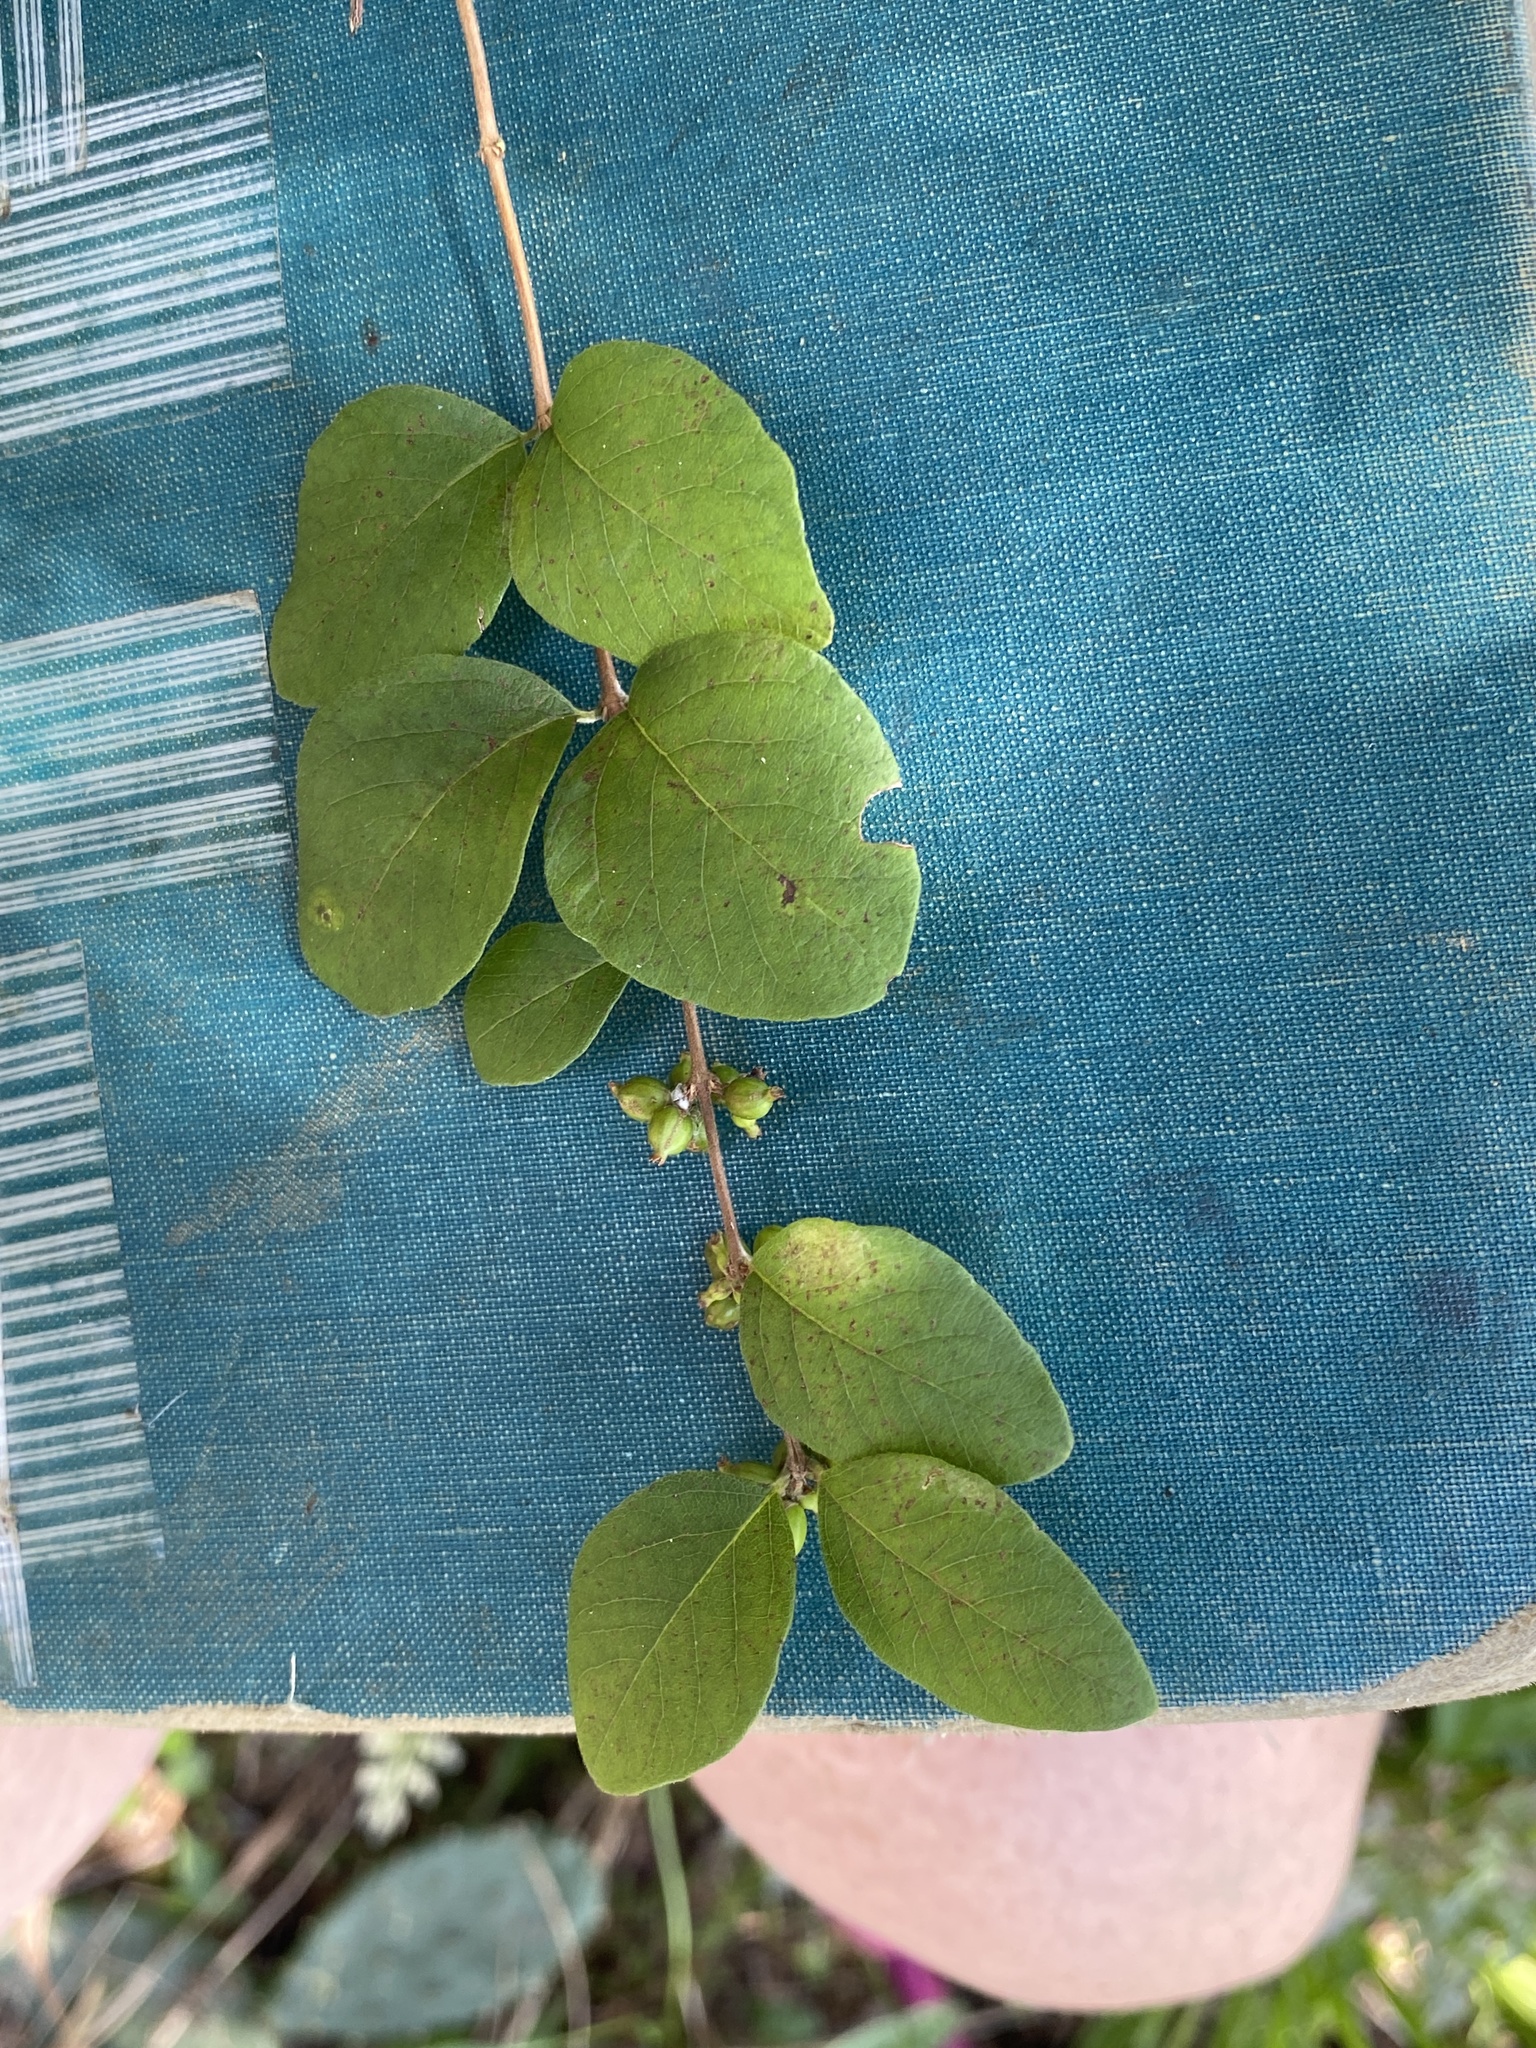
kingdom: Plantae
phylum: Tracheophyta
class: Magnoliopsida
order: Dipsacales
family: Caprifoliaceae
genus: Symphoricarpos
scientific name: Symphoricarpos orbiculatus
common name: Coralberry
